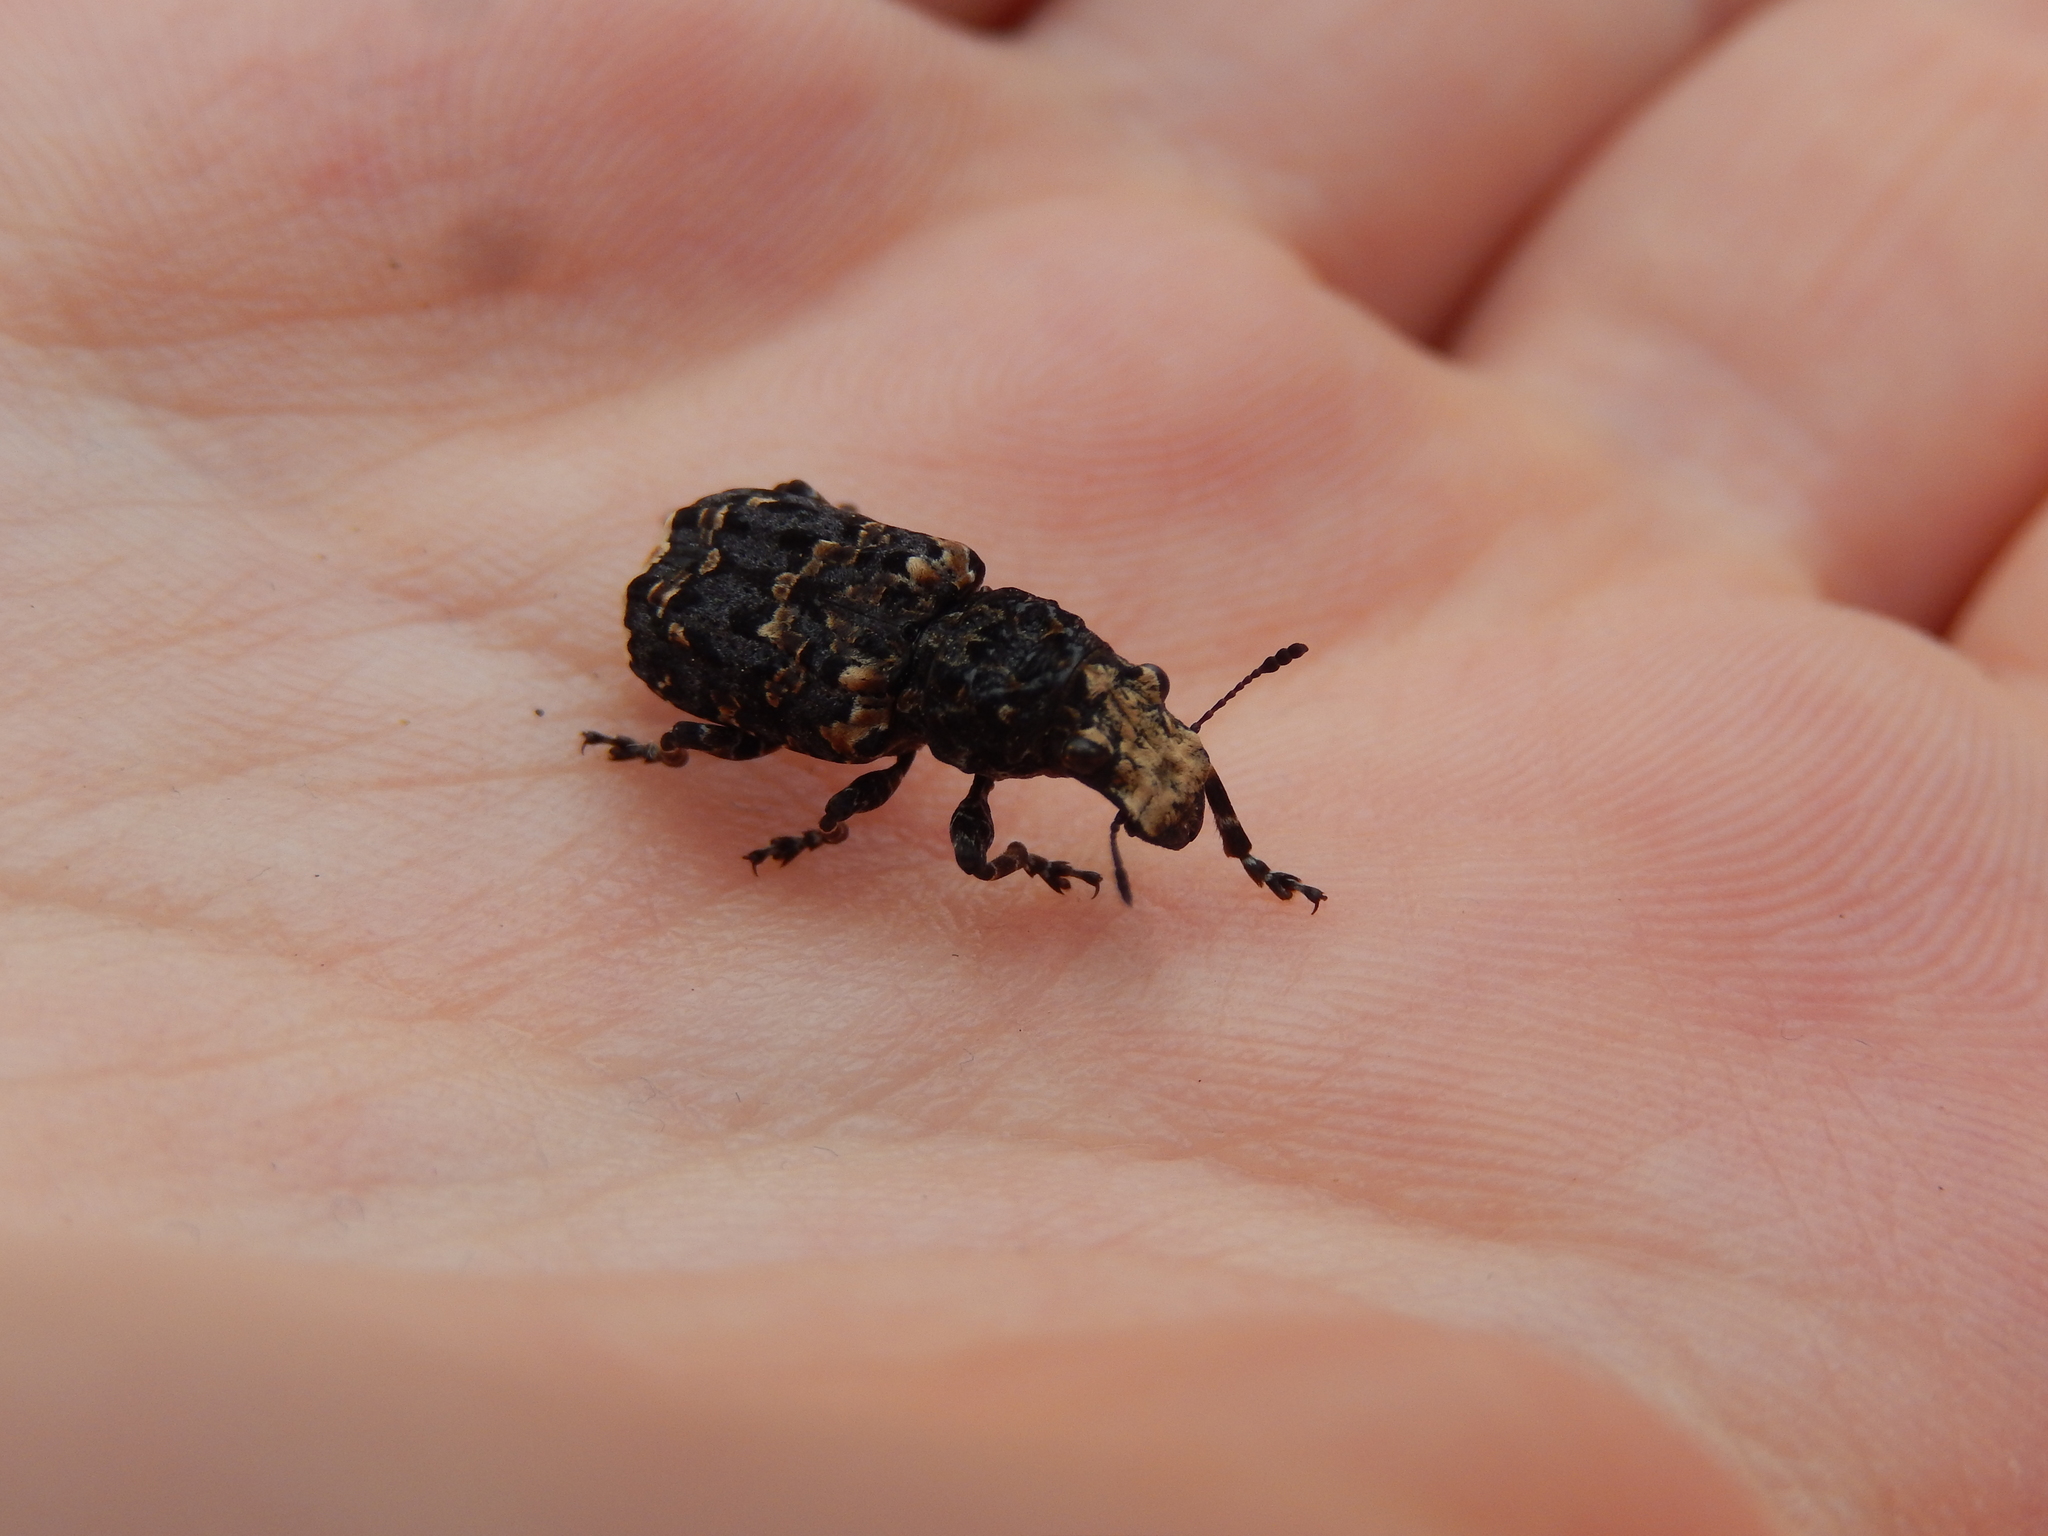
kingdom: Animalia
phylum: Arthropoda
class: Insecta
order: Coleoptera
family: Anthribidae
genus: Platyrhinus
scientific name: Platyrhinus resinosus
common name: Cramp-ball fungus weevil
